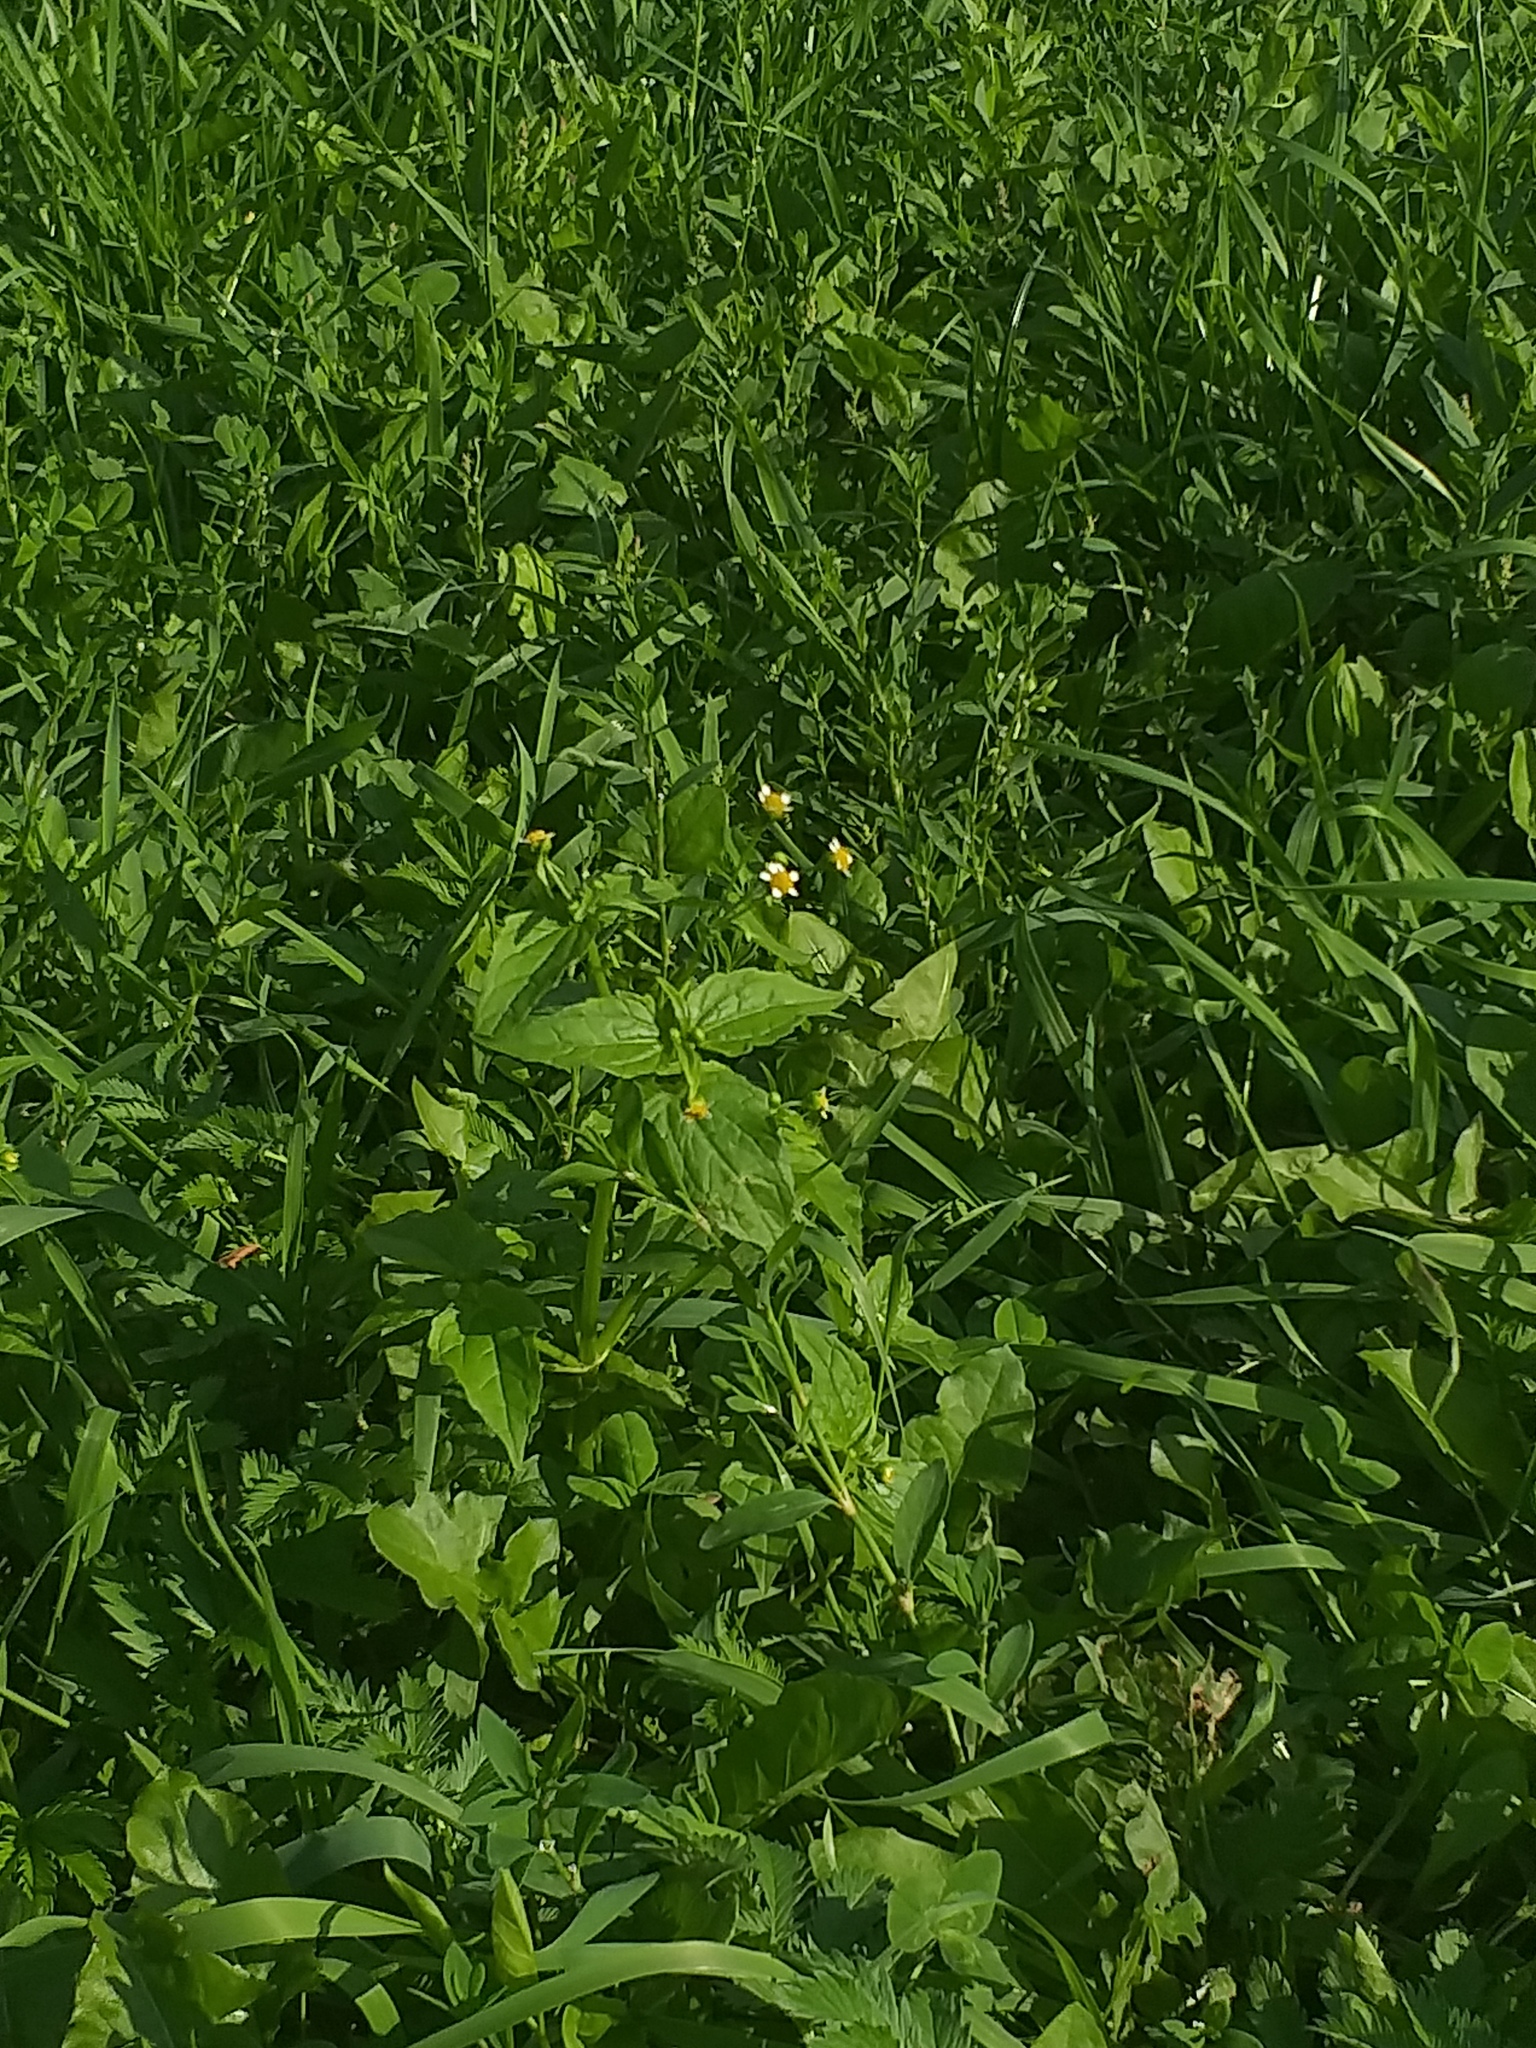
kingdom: Plantae
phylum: Tracheophyta
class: Magnoliopsida
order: Asterales
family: Asteraceae
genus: Galinsoga
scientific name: Galinsoga quadriradiata
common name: Shaggy soldier
